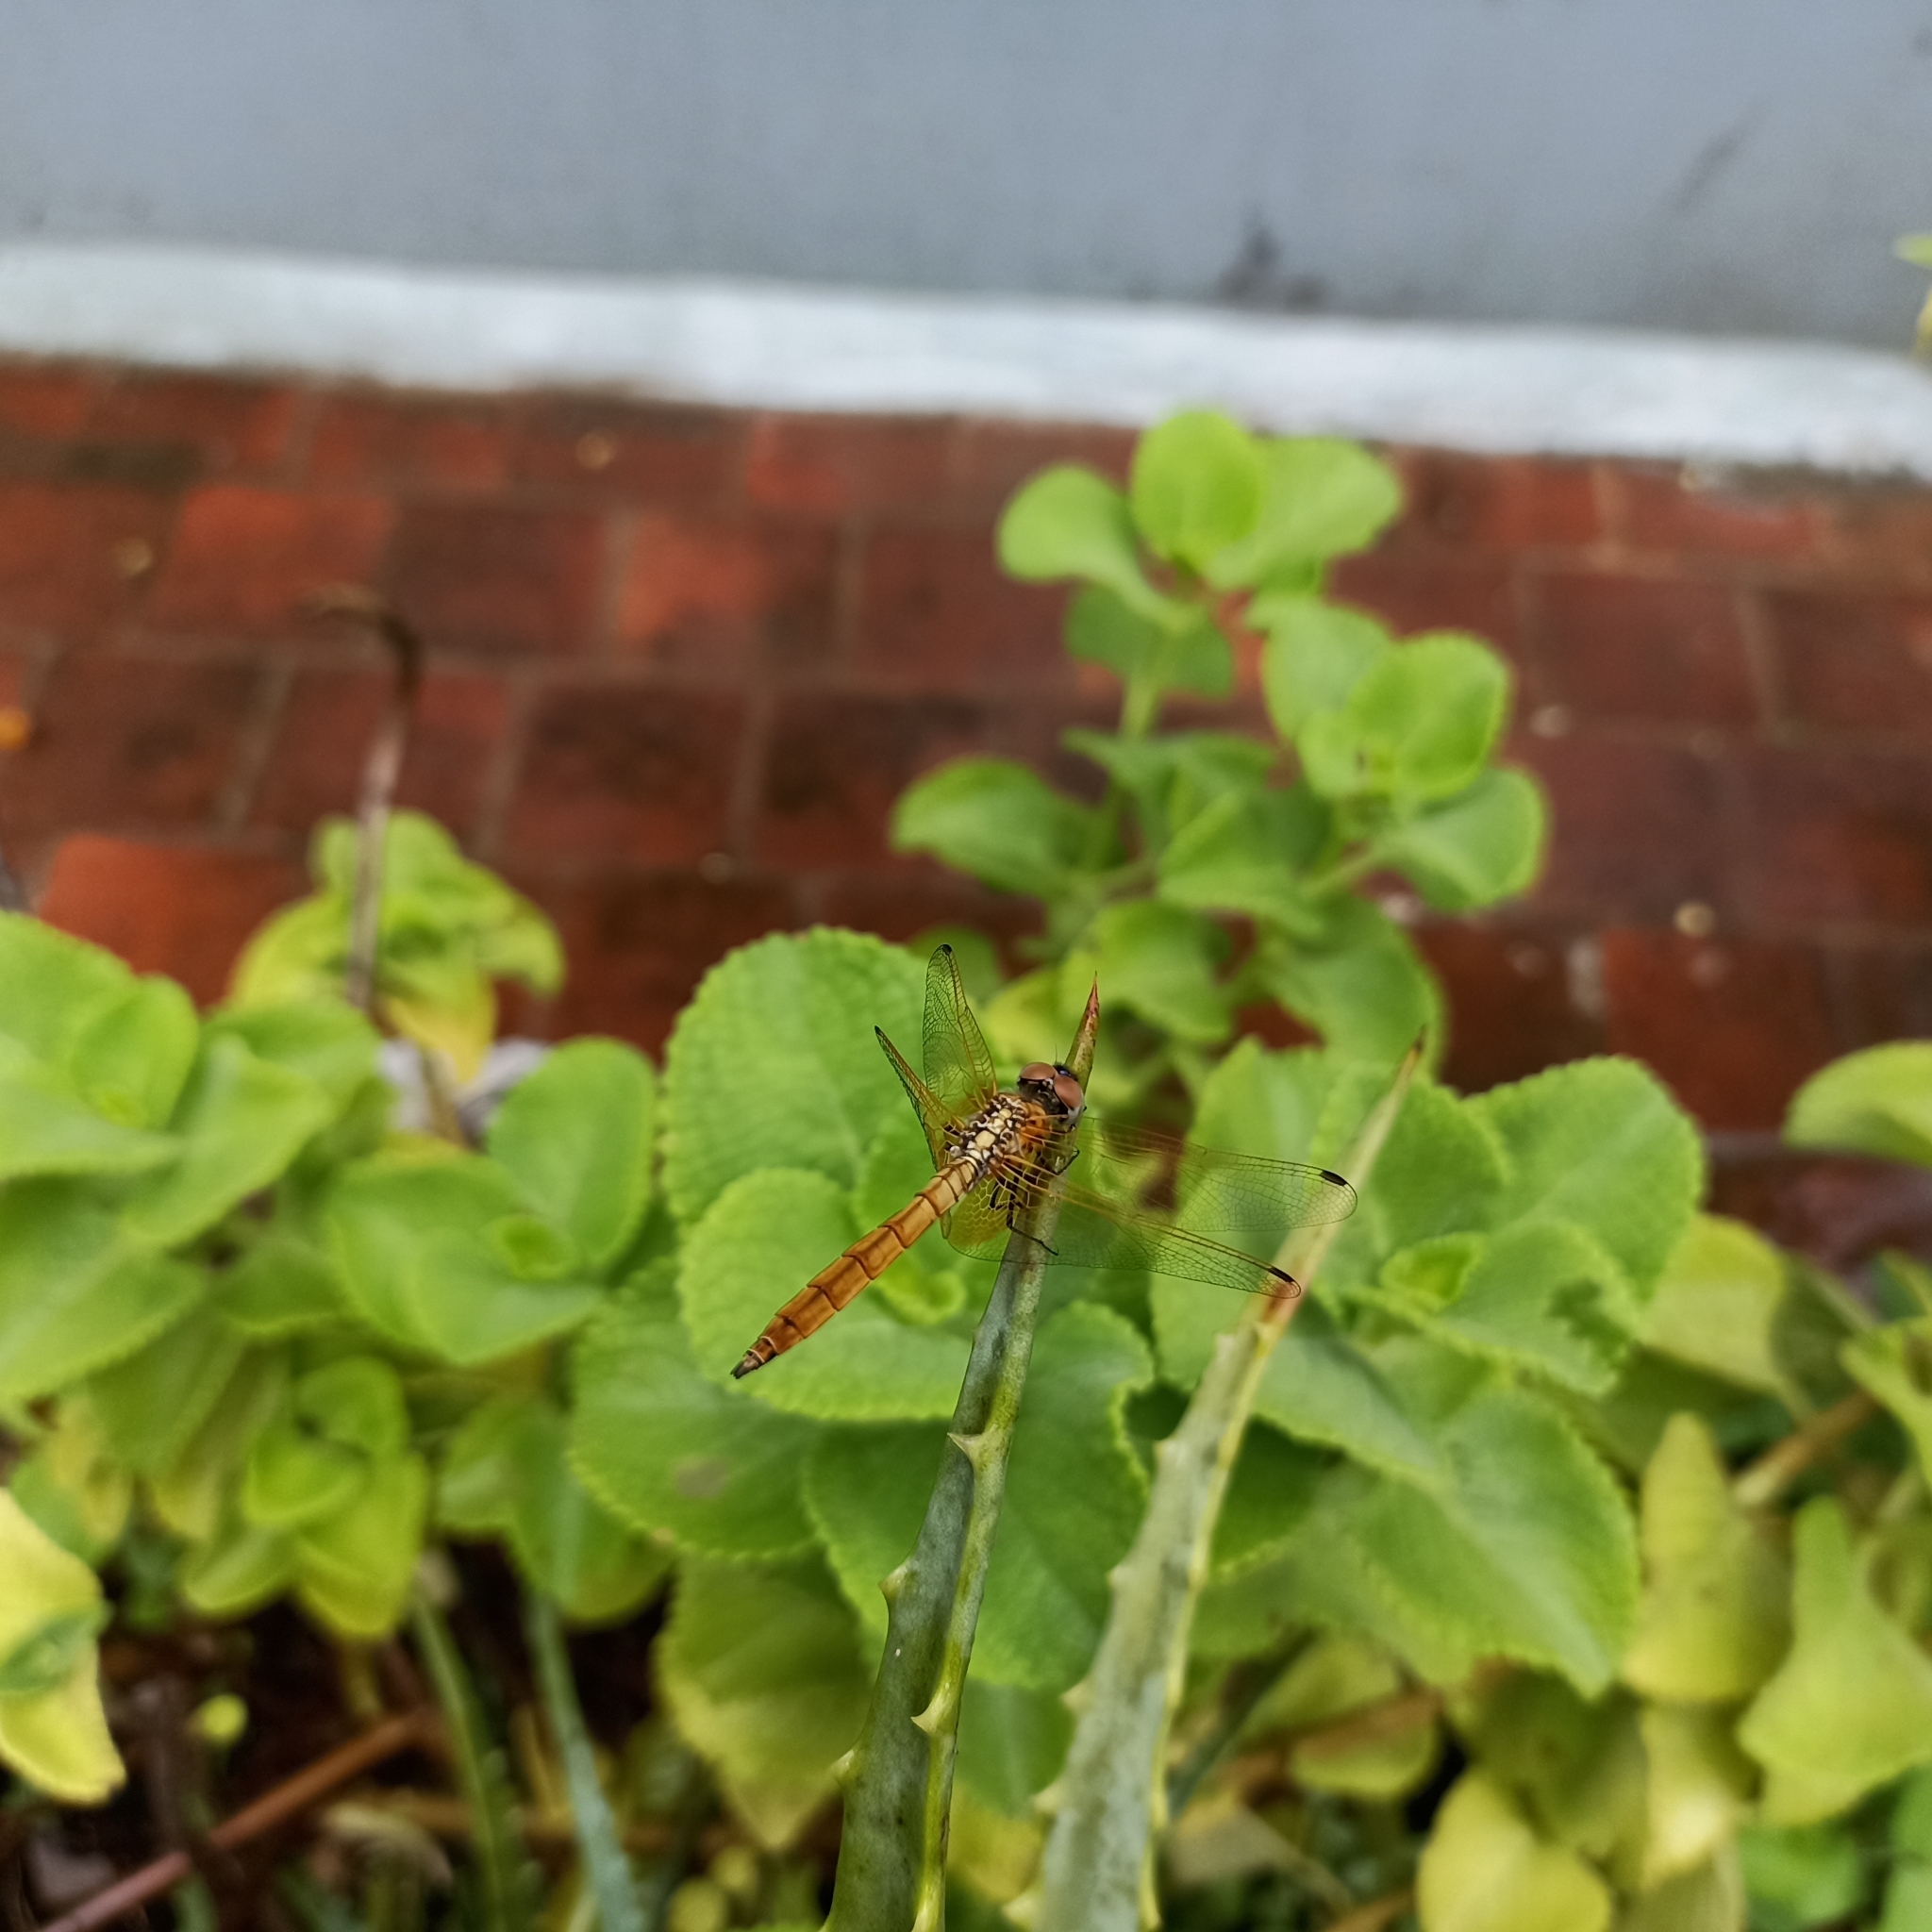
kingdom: Animalia
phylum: Arthropoda
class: Insecta
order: Odonata
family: Libellulidae
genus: Trithemis
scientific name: Trithemis aurora
